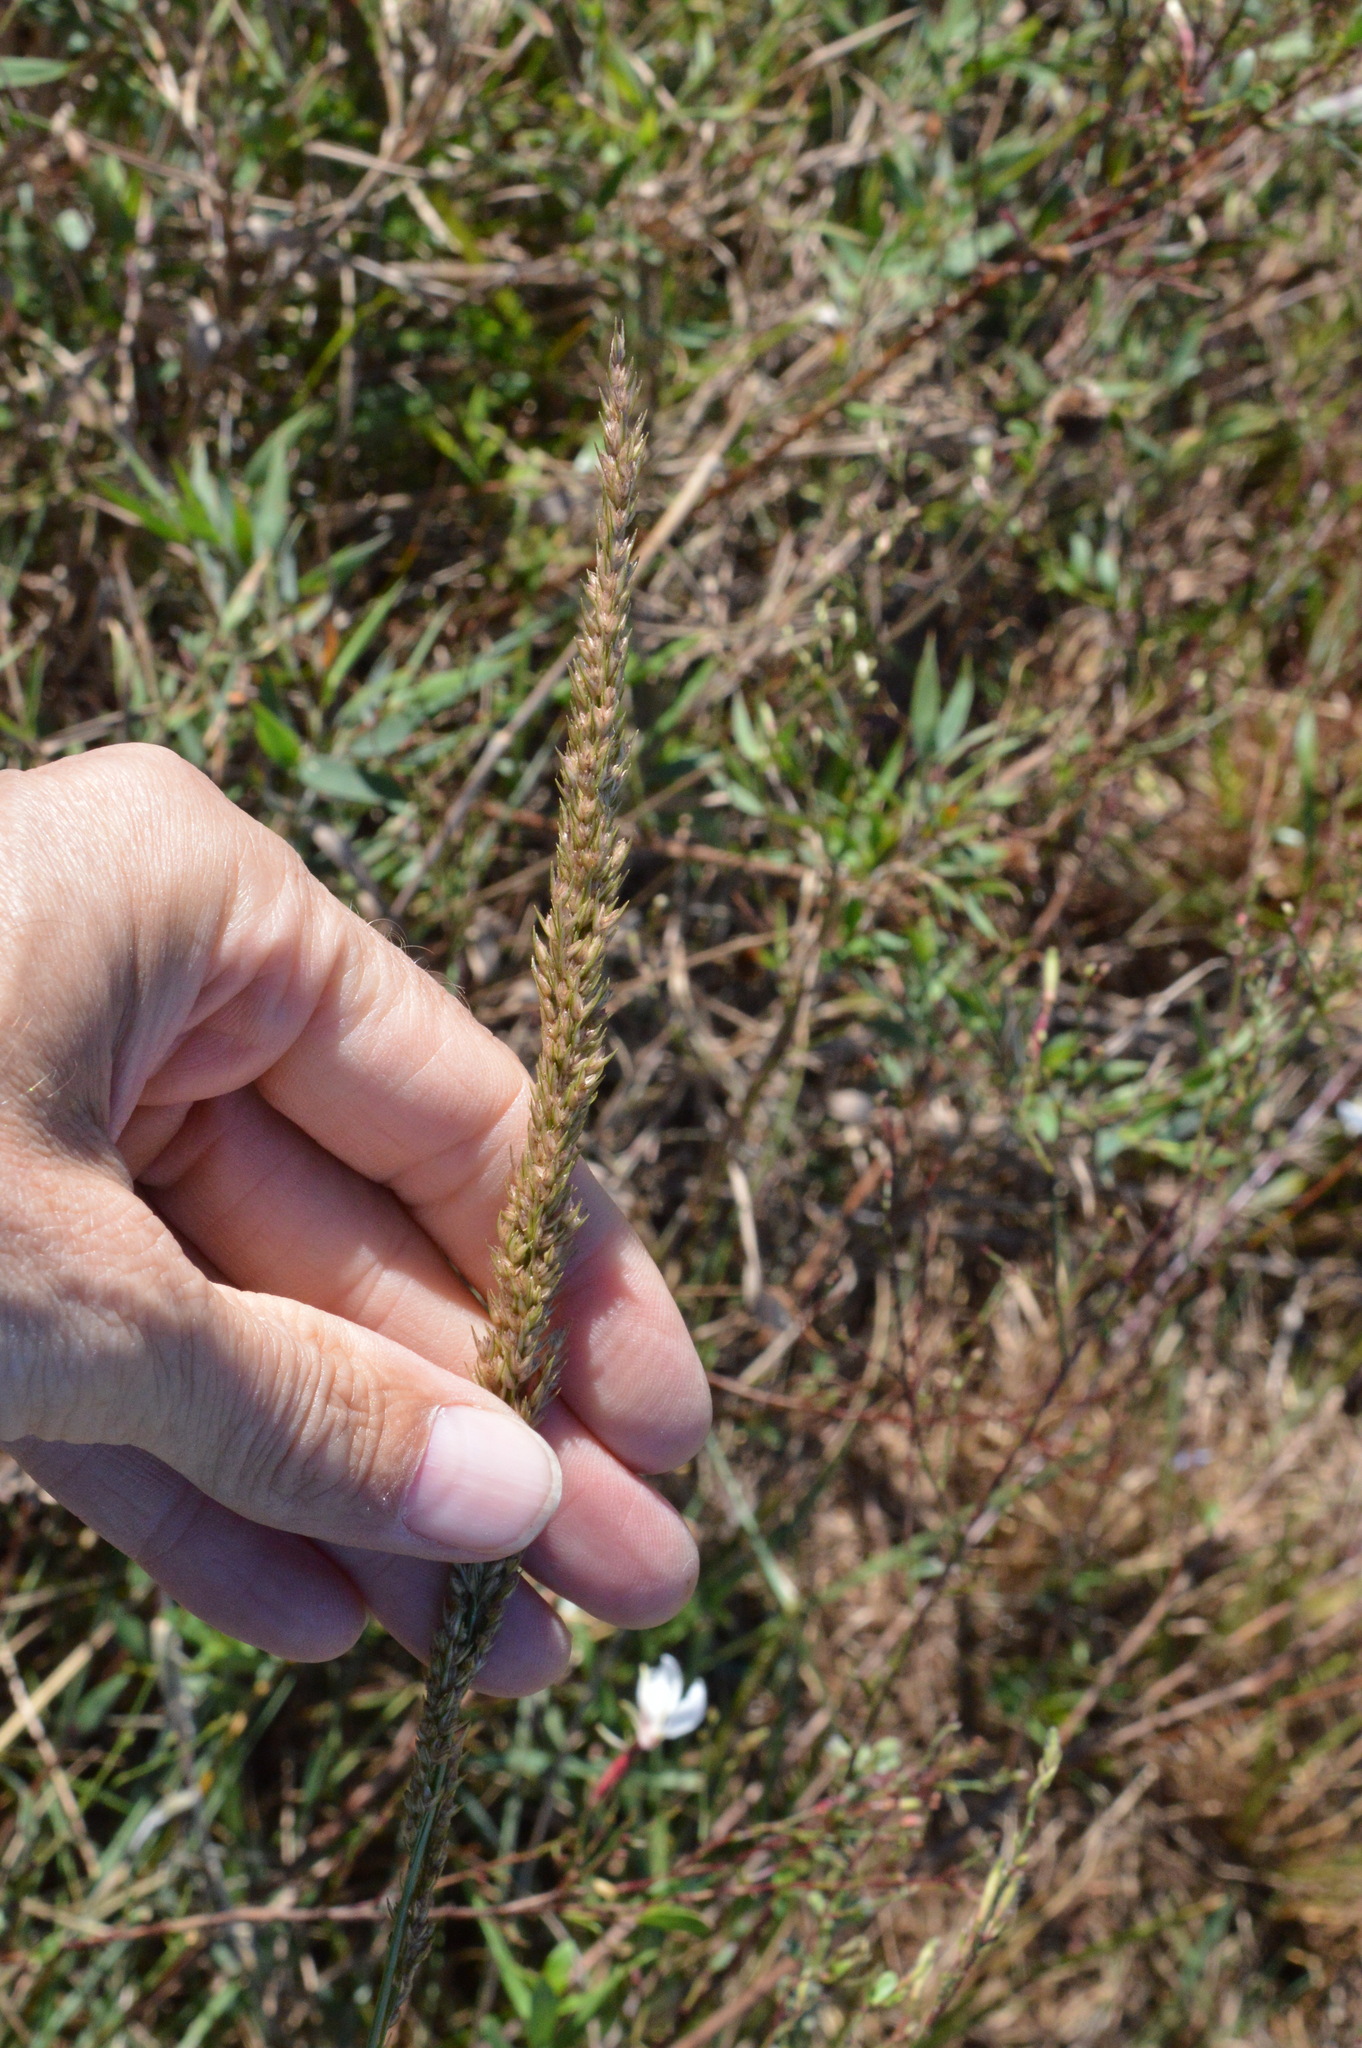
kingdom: Plantae
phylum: Tracheophyta
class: Liliopsida
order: Poales
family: Poaceae
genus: Tridens
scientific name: Tridens strictus
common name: Long-spike tridens
